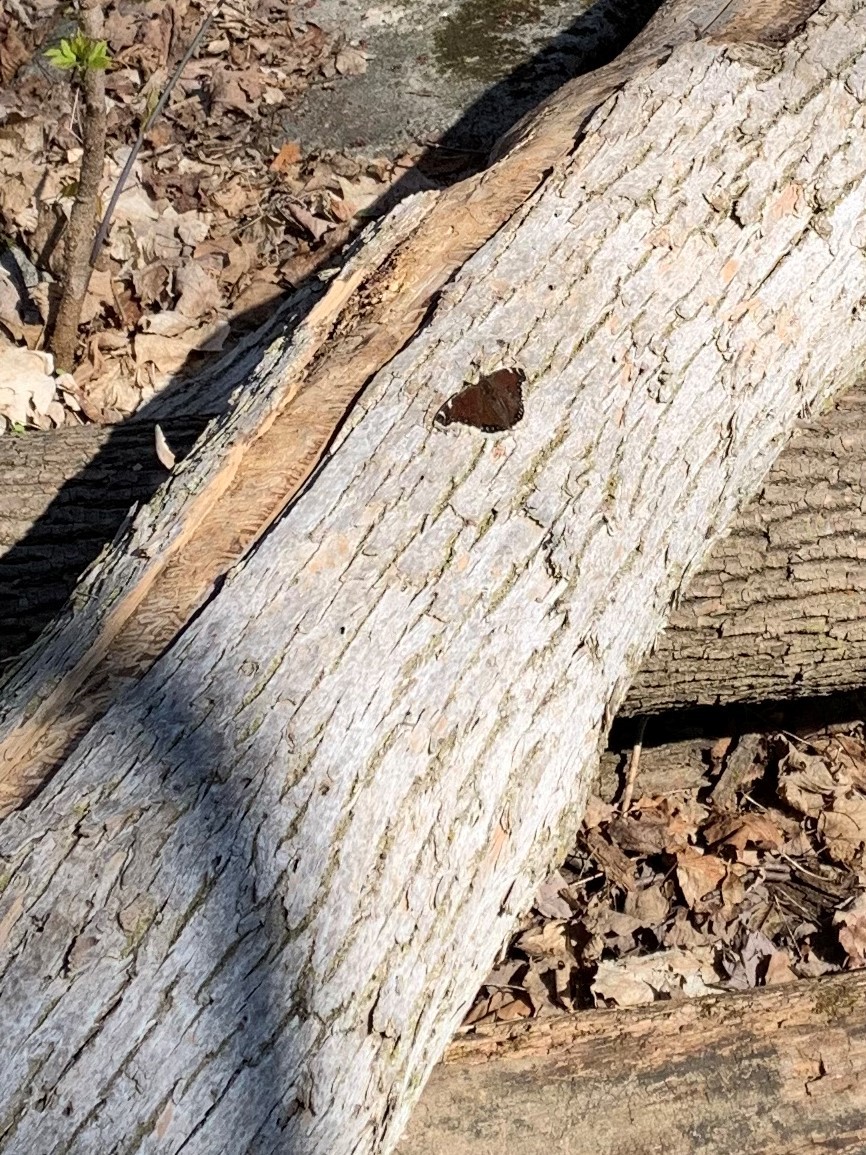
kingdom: Animalia
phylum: Arthropoda
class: Insecta
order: Lepidoptera
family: Nymphalidae
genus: Nymphalis
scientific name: Nymphalis antiopa
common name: Camberwell beauty
